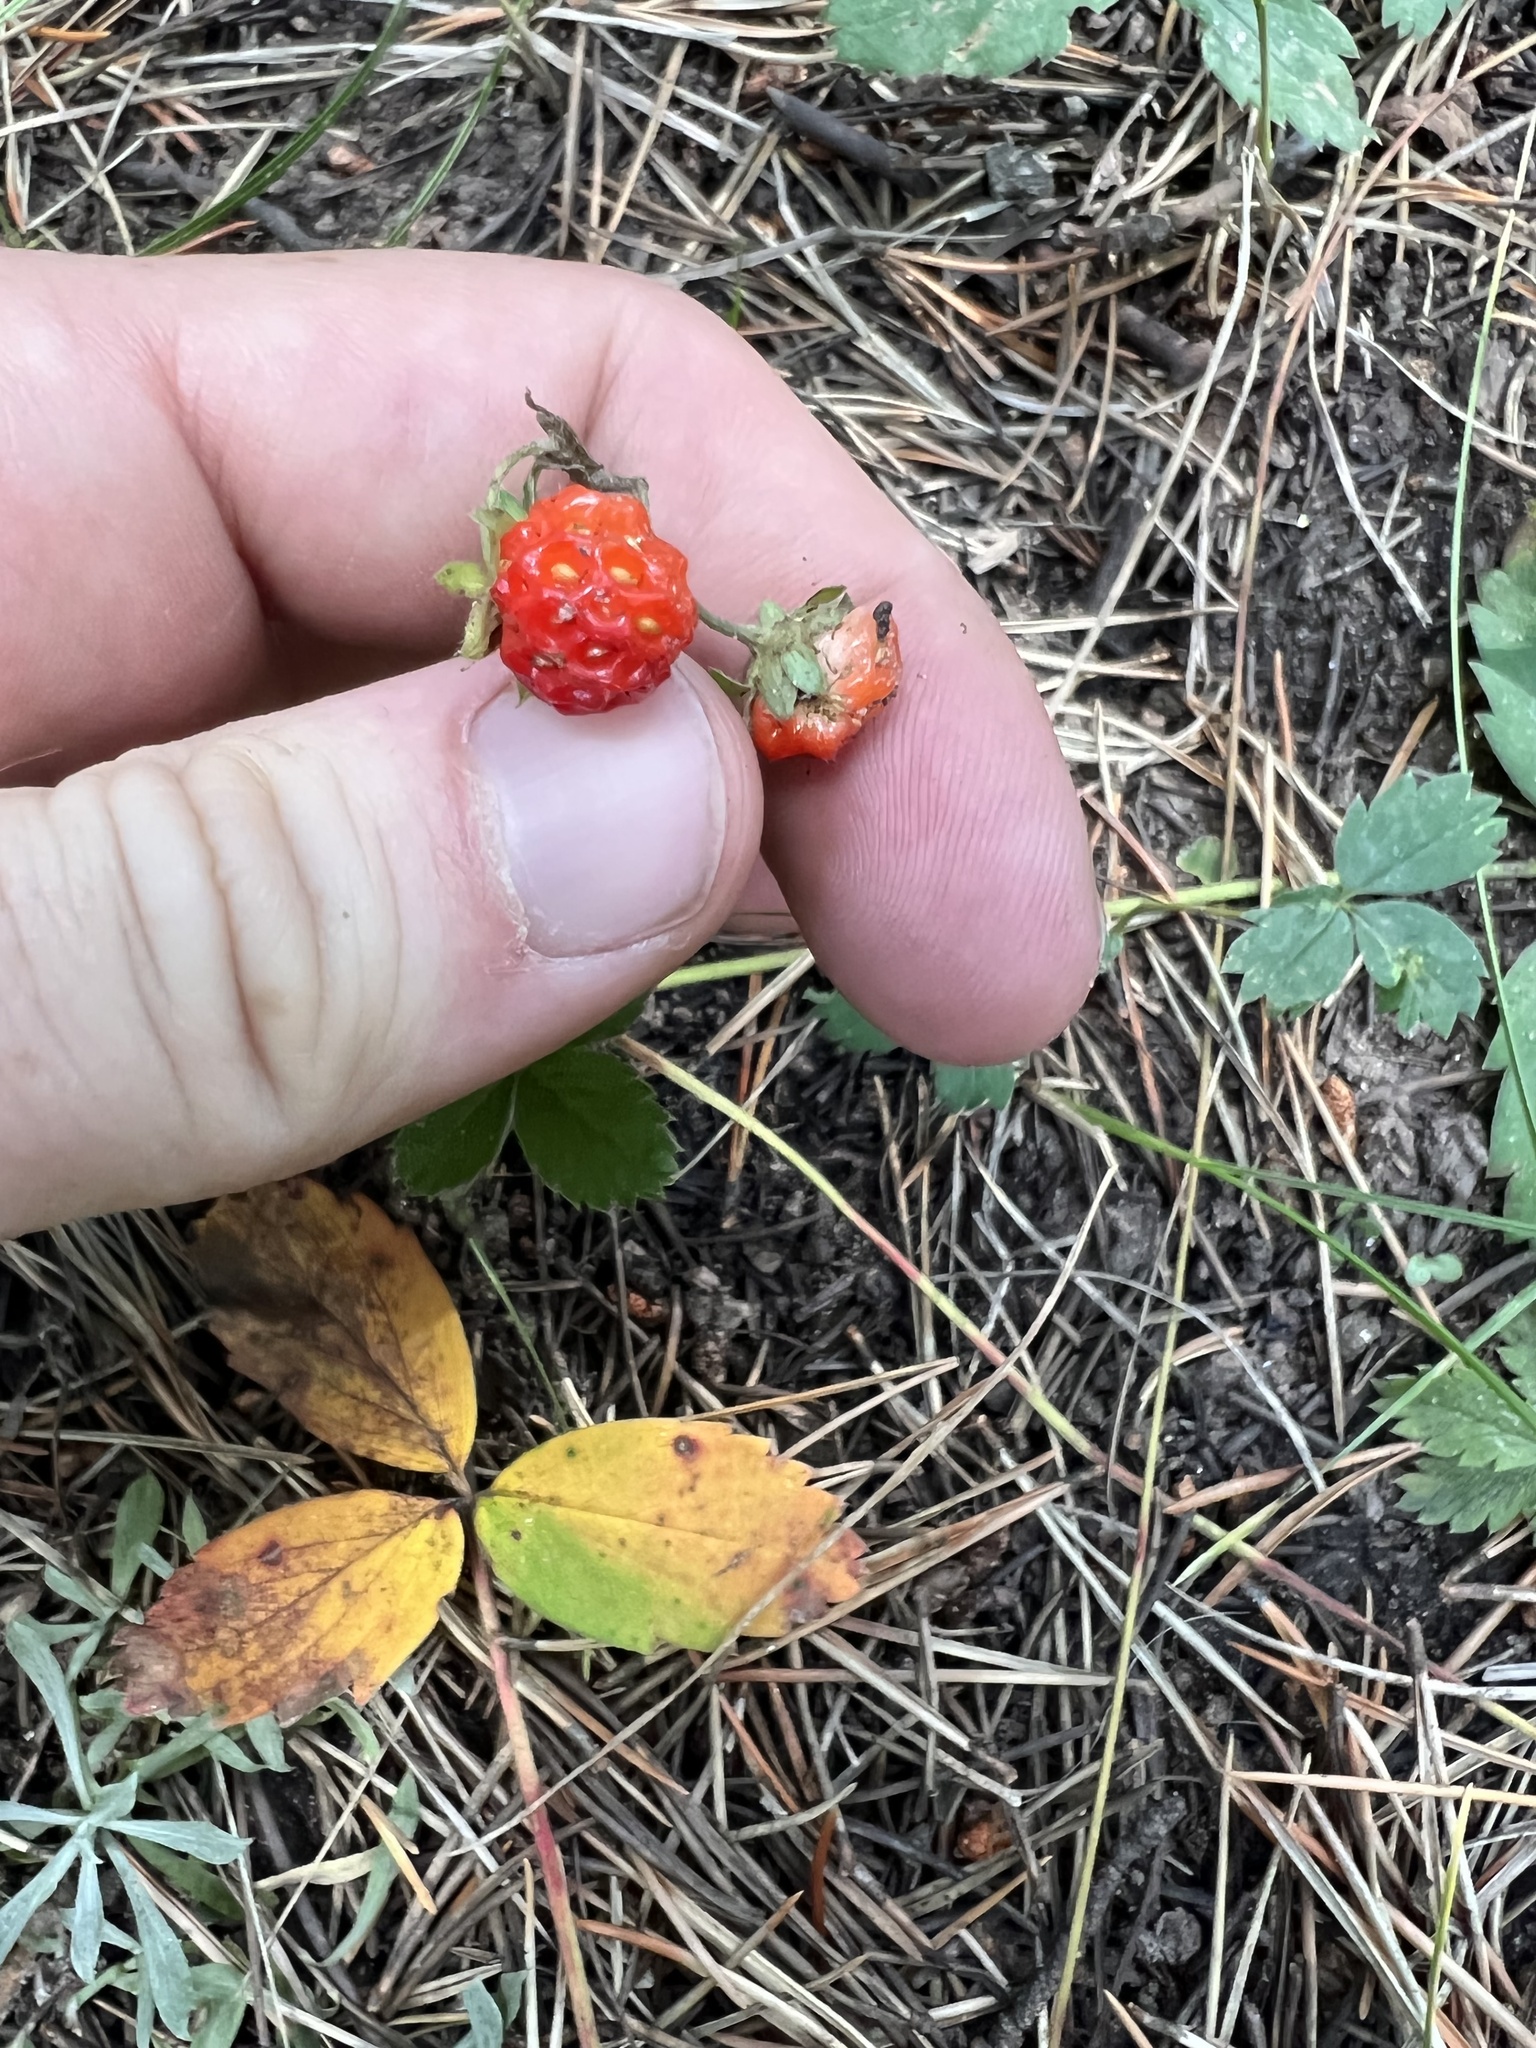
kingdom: Plantae
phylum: Tracheophyta
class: Magnoliopsida
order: Rosales
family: Rosaceae
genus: Fragaria
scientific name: Fragaria virginiana
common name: Thickleaved wild strawberry
